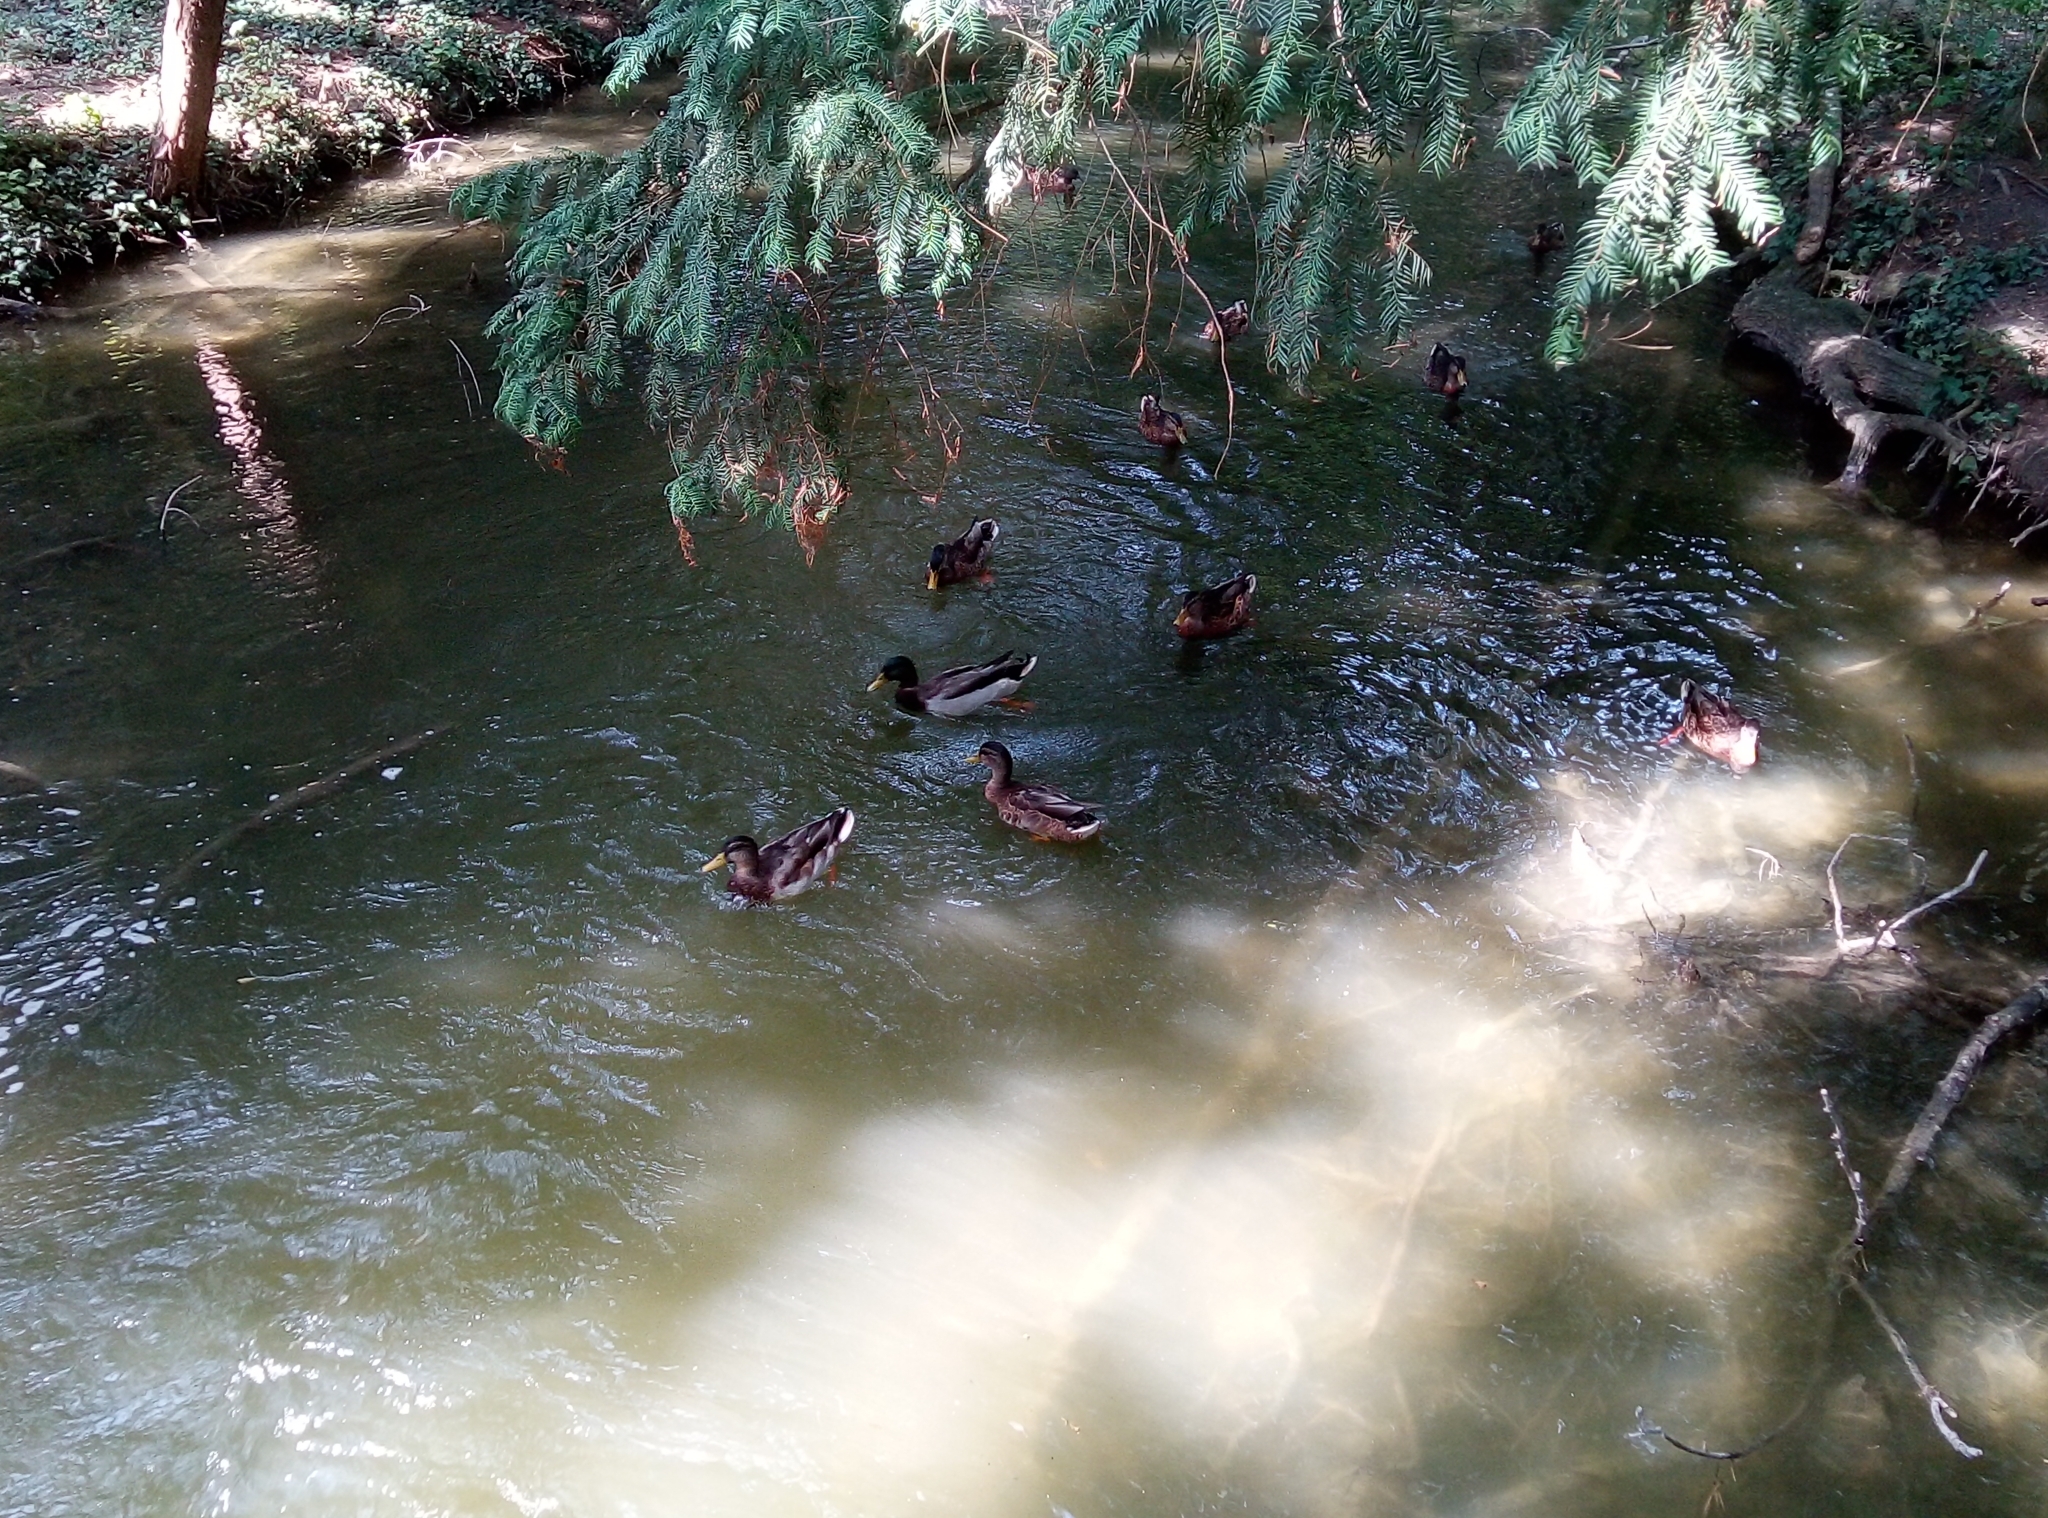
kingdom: Animalia
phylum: Chordata
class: Aves
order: Anseriformes
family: Anatidae
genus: Anas
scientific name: Anas platyrhynchos
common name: Mallard
